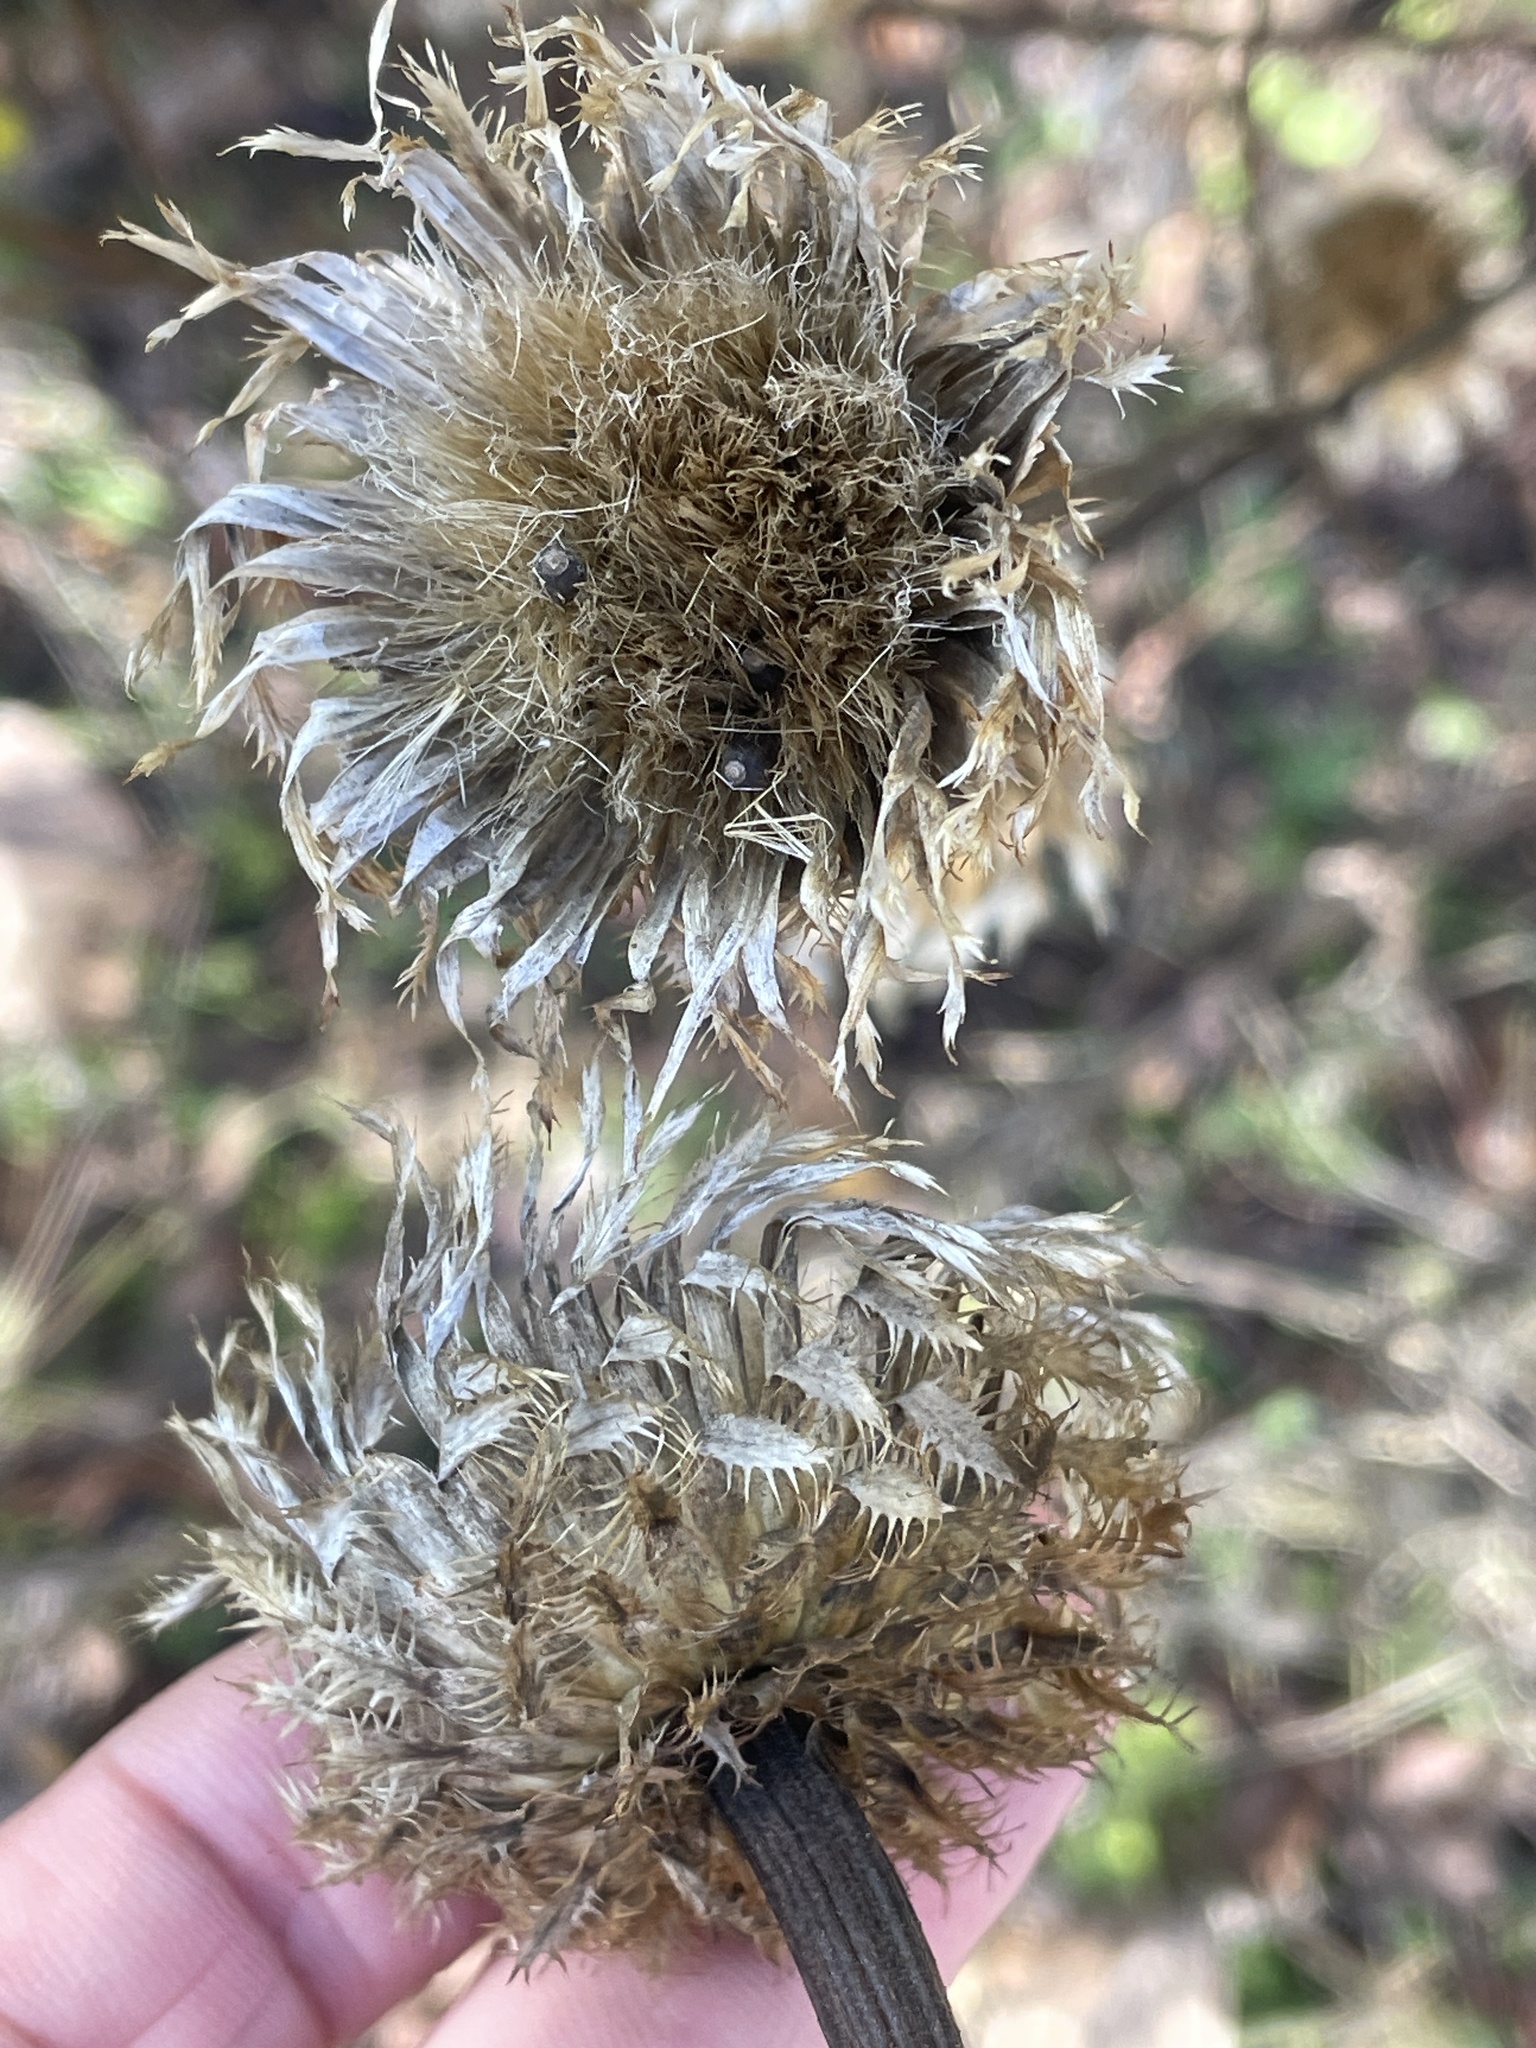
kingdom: Plantae
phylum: Tracheophyta
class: Magnoliopsida
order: Asterales
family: Asteraceae
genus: Plectocephalus
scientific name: Plectocephalus americanus
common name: American basket-flower
